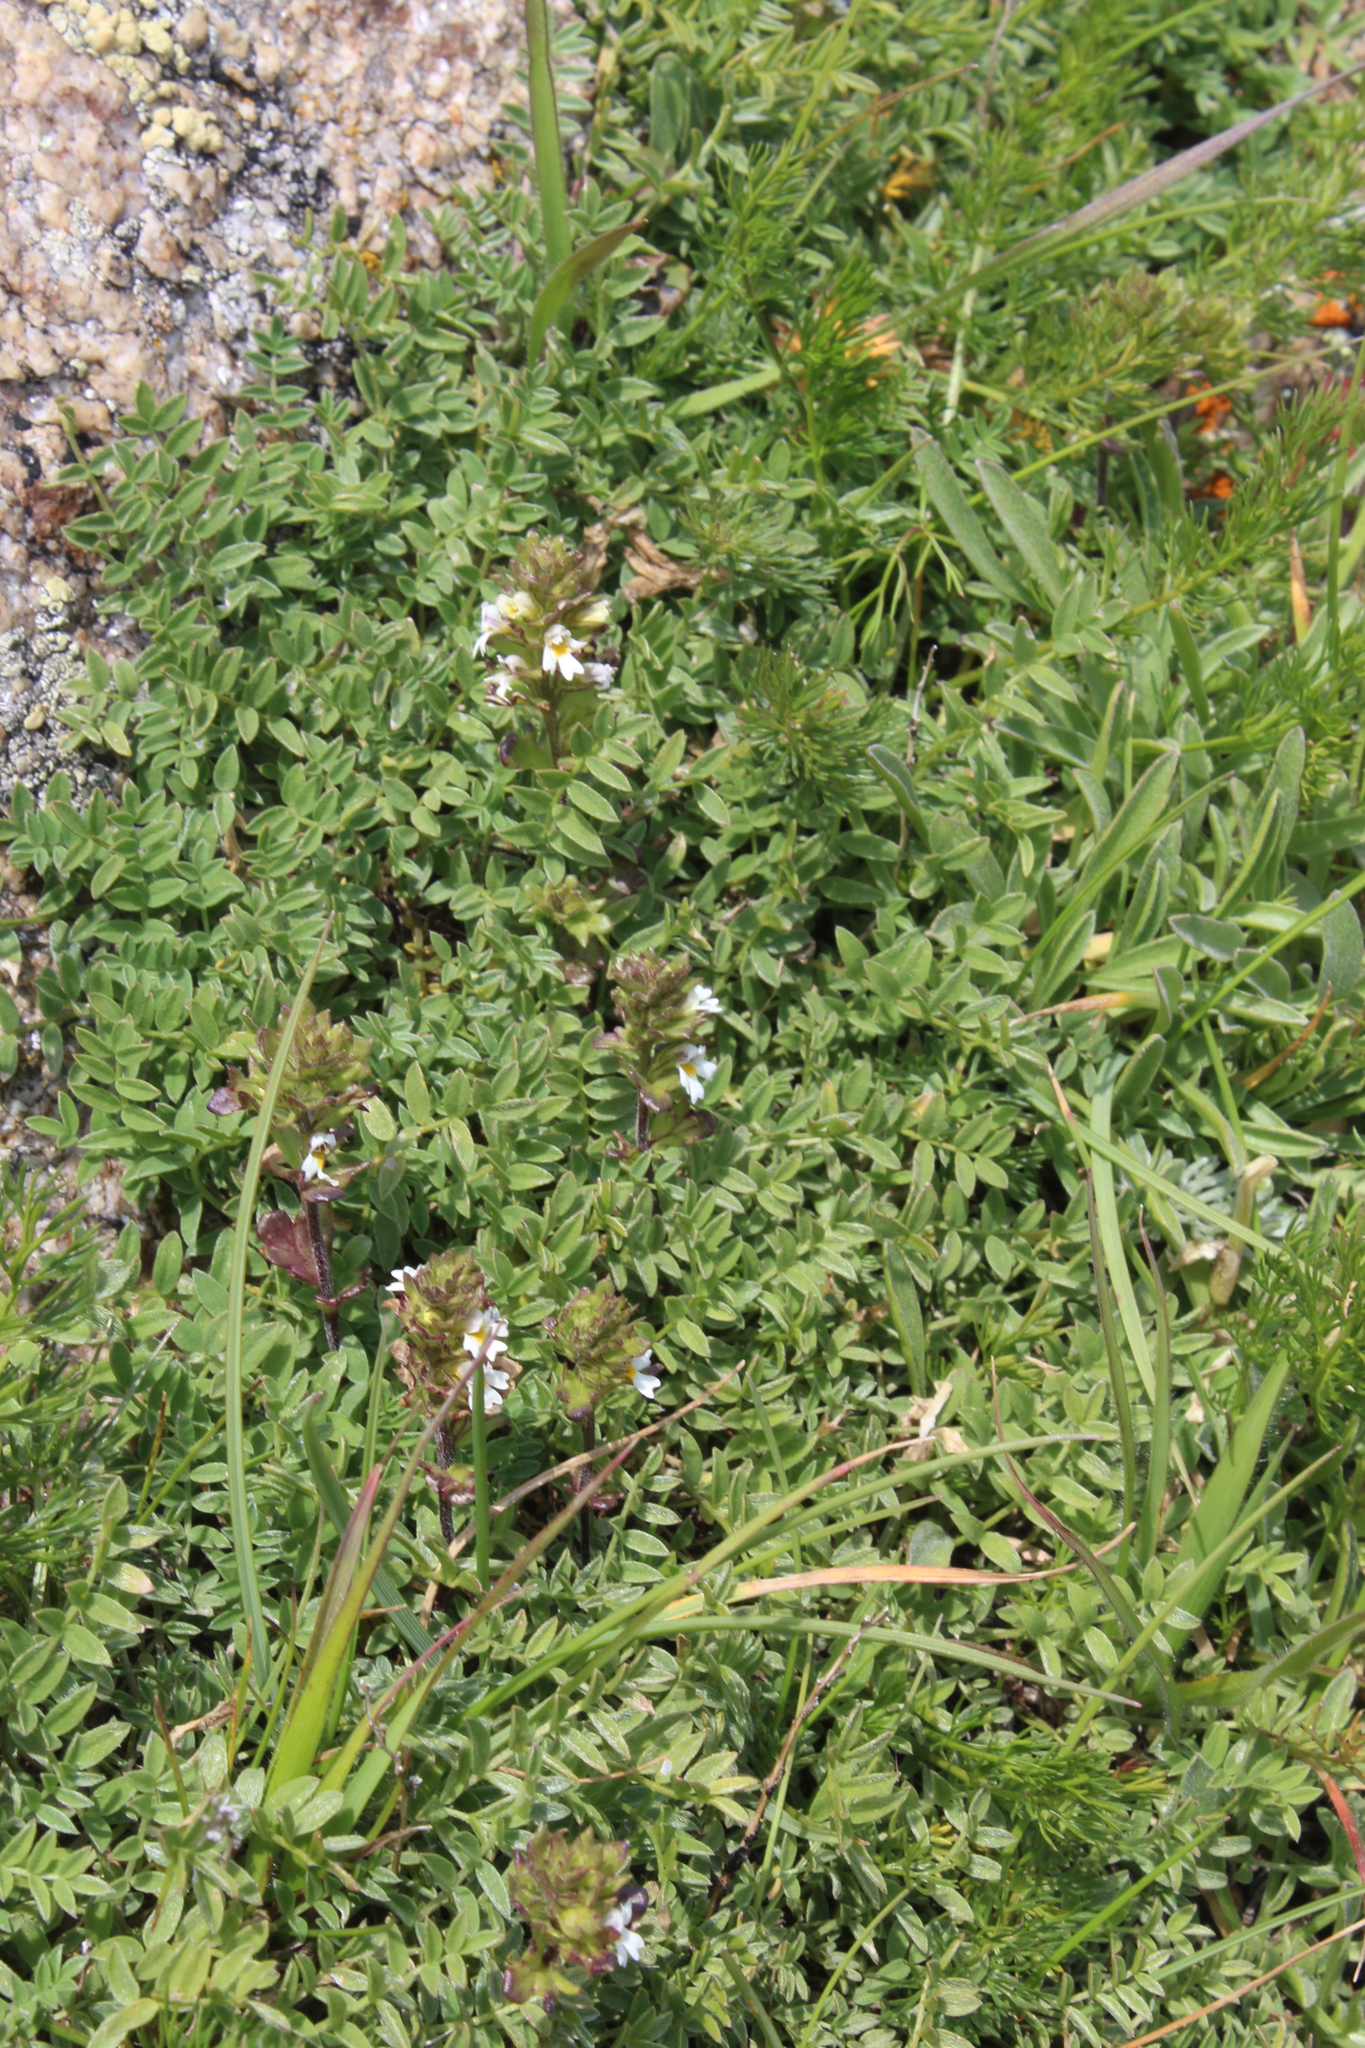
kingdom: Plantae
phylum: Tracheophyta
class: Magnoliopsida
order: Lamiales
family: Orobanchaceae
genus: Euphrasia
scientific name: Euphrasia ossica
